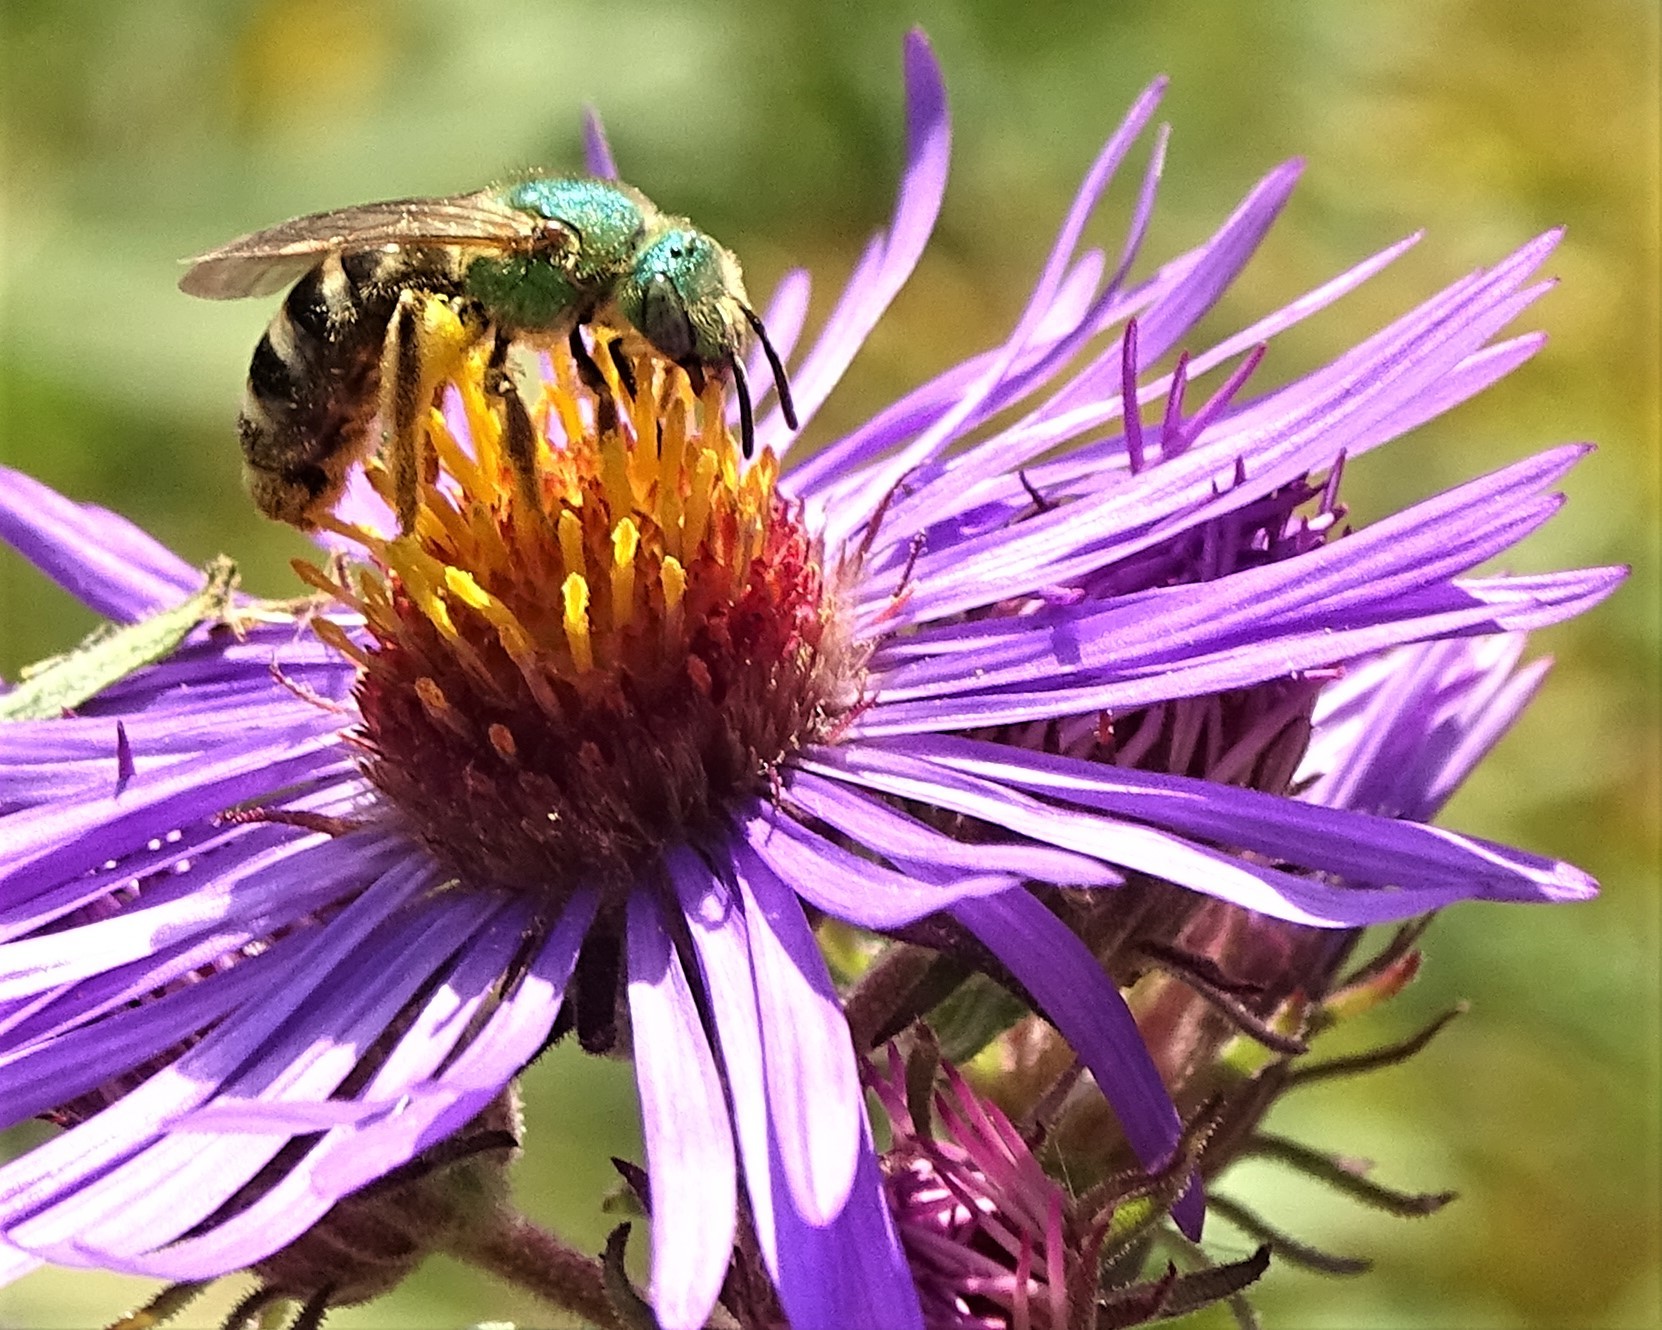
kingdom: Animalia
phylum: Arthropoda
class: Insecta
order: Hymenoptera
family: Halictidae
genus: Agapostemon
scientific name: Agapostemon virescens
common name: Bicolored striped sweat bee
